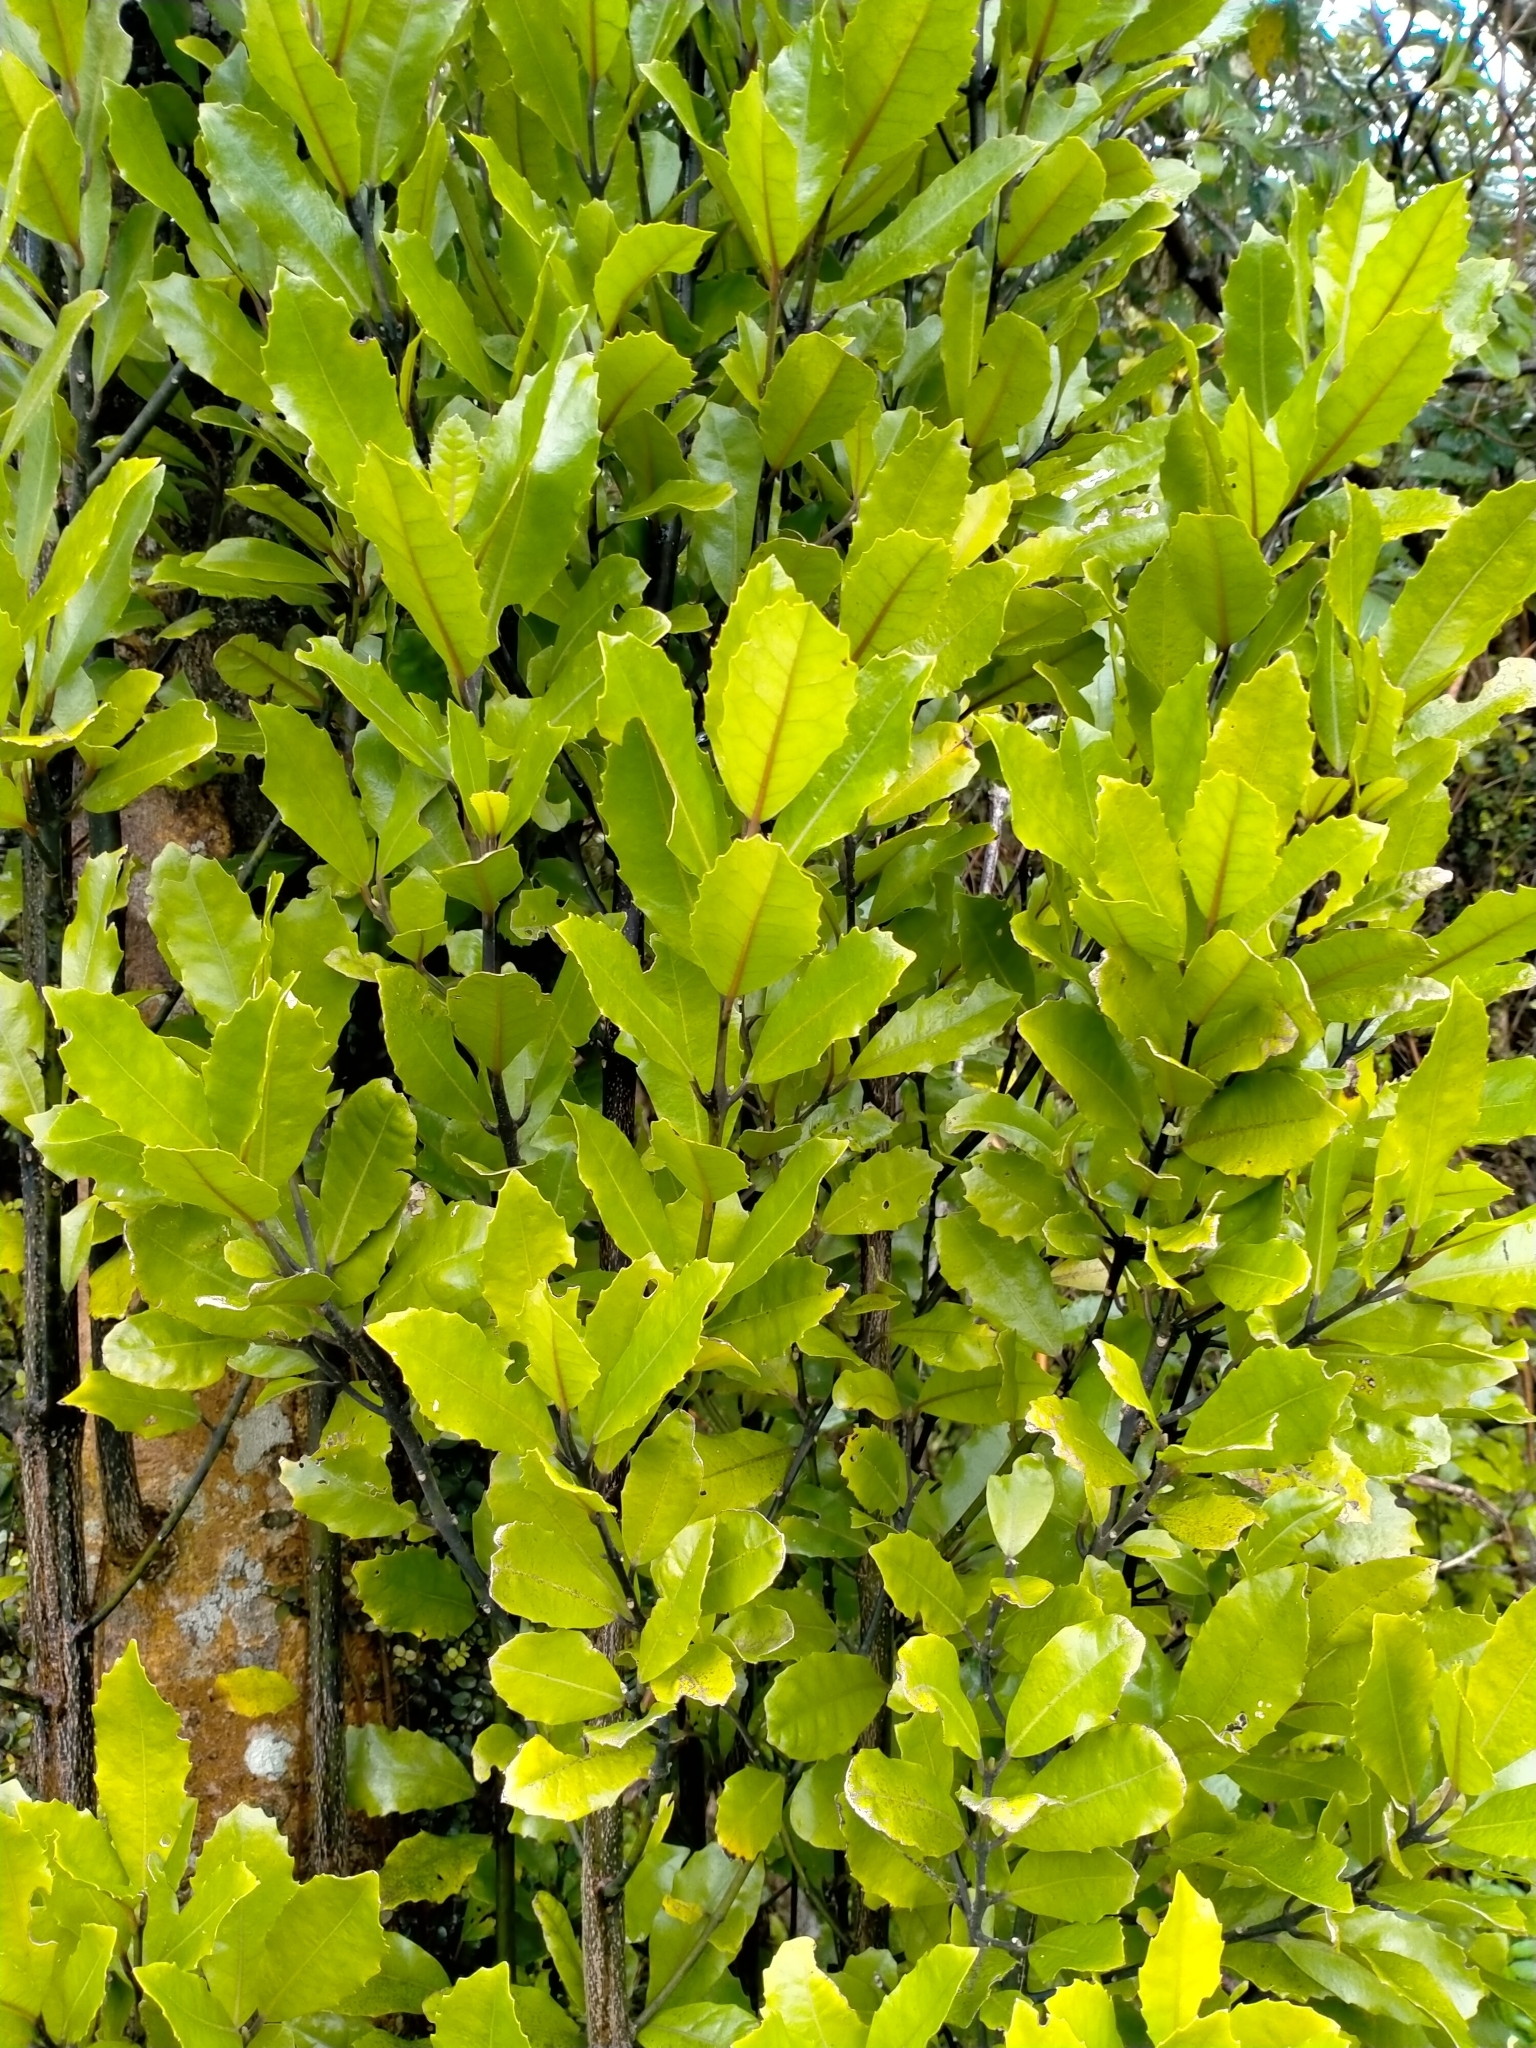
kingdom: Plantae
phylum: Tracheophyta
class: Magnoliopsida
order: Laurales
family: Monimiaceae
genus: Hedycarya
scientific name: Hedycarya arborea
